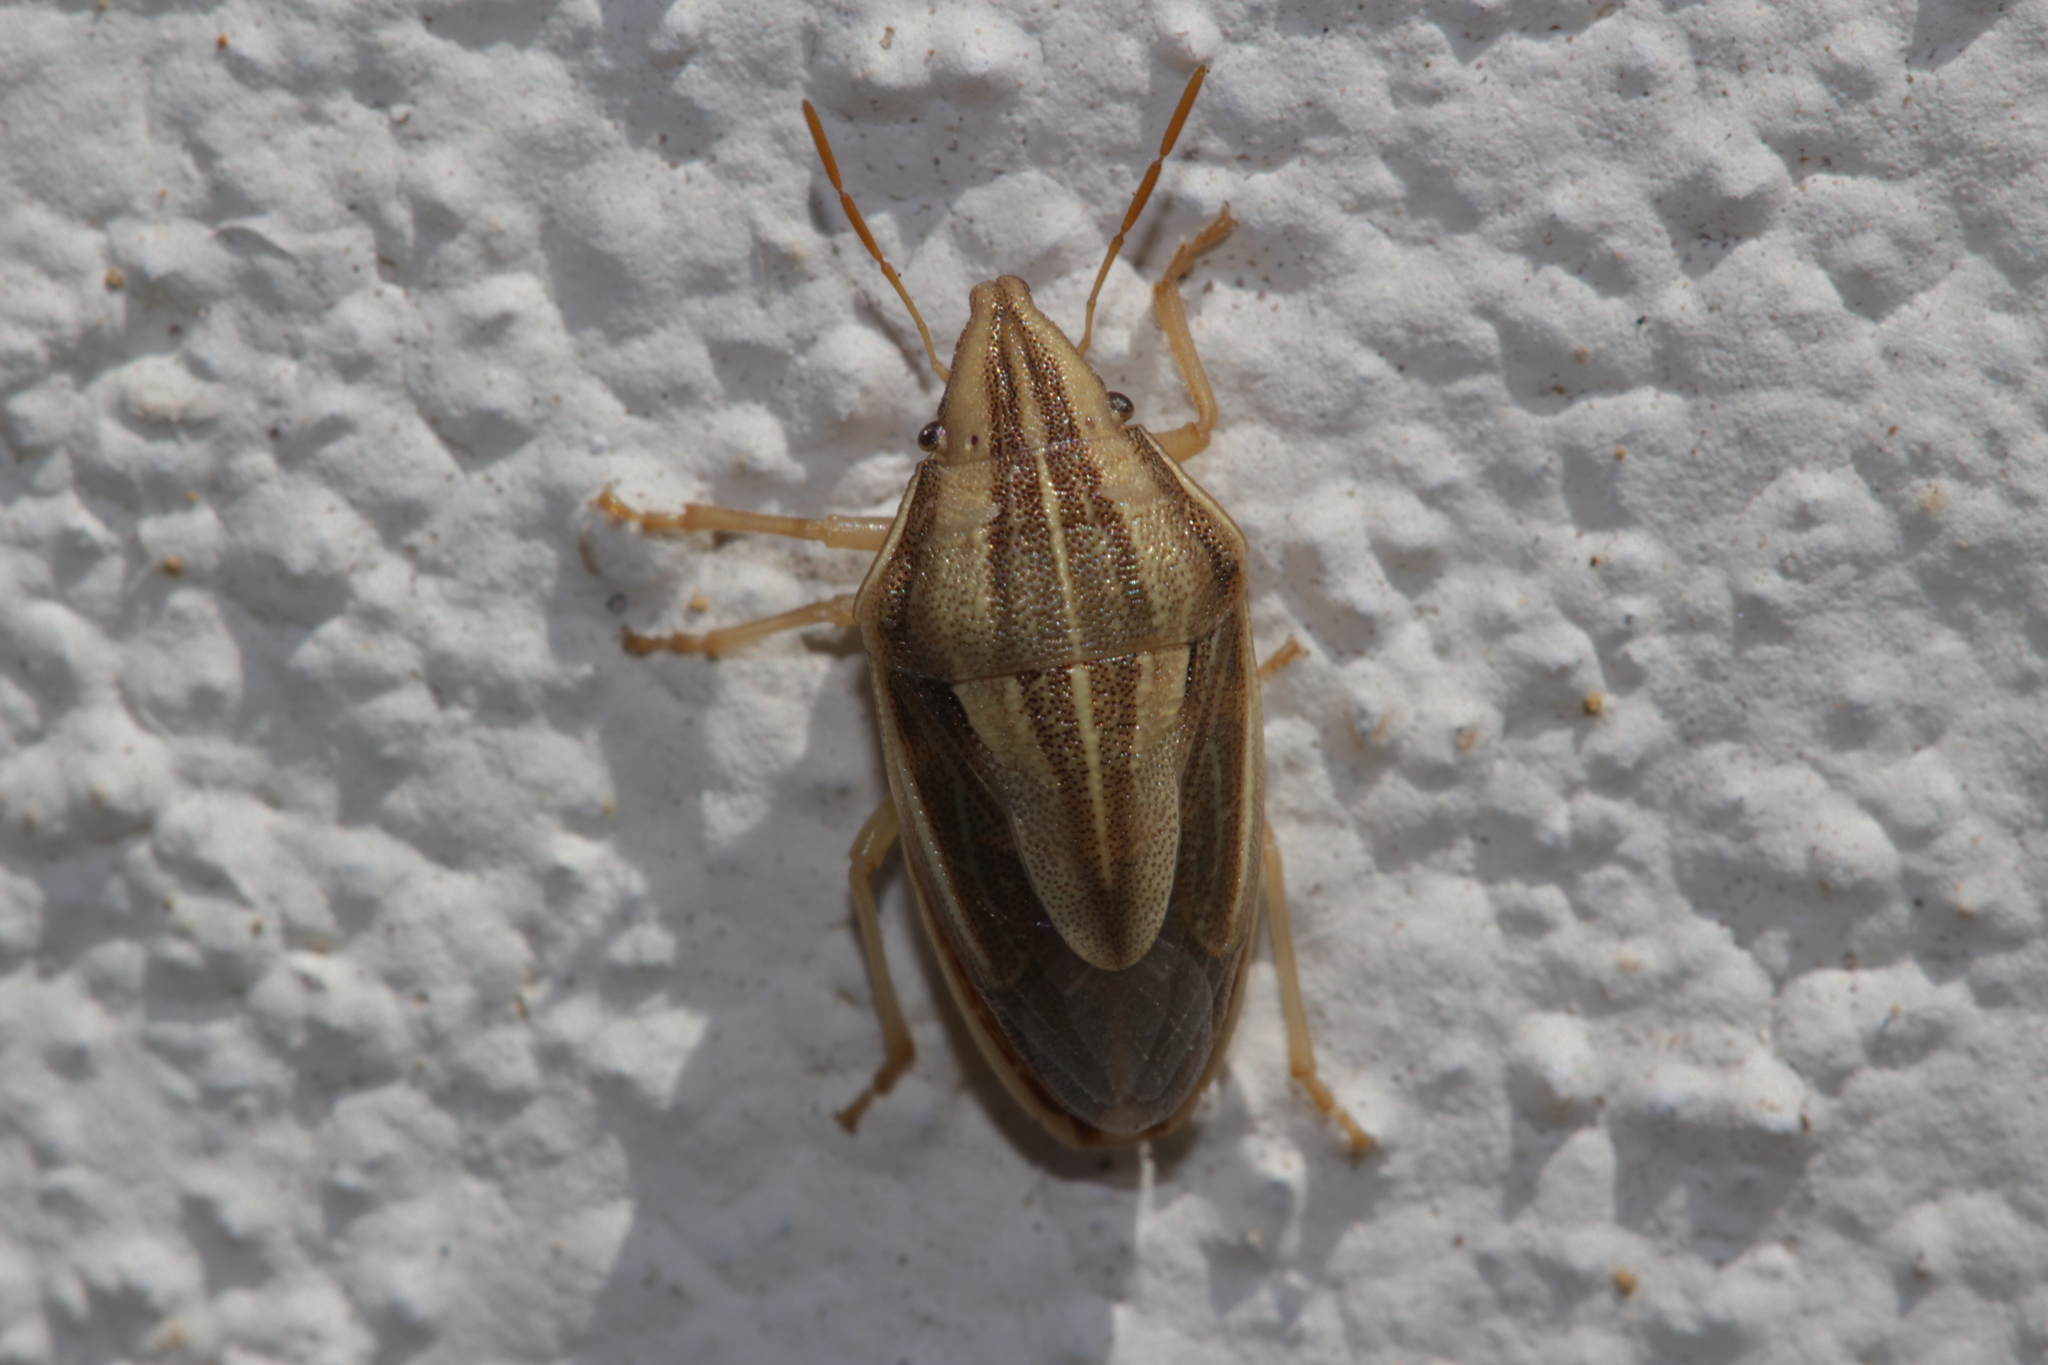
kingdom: Animalia
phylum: Arthropoda
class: Insecta
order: Hemiptera
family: Pentatomidae
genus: Aelia
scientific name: Aelia acuminata
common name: Bishop's mitre
